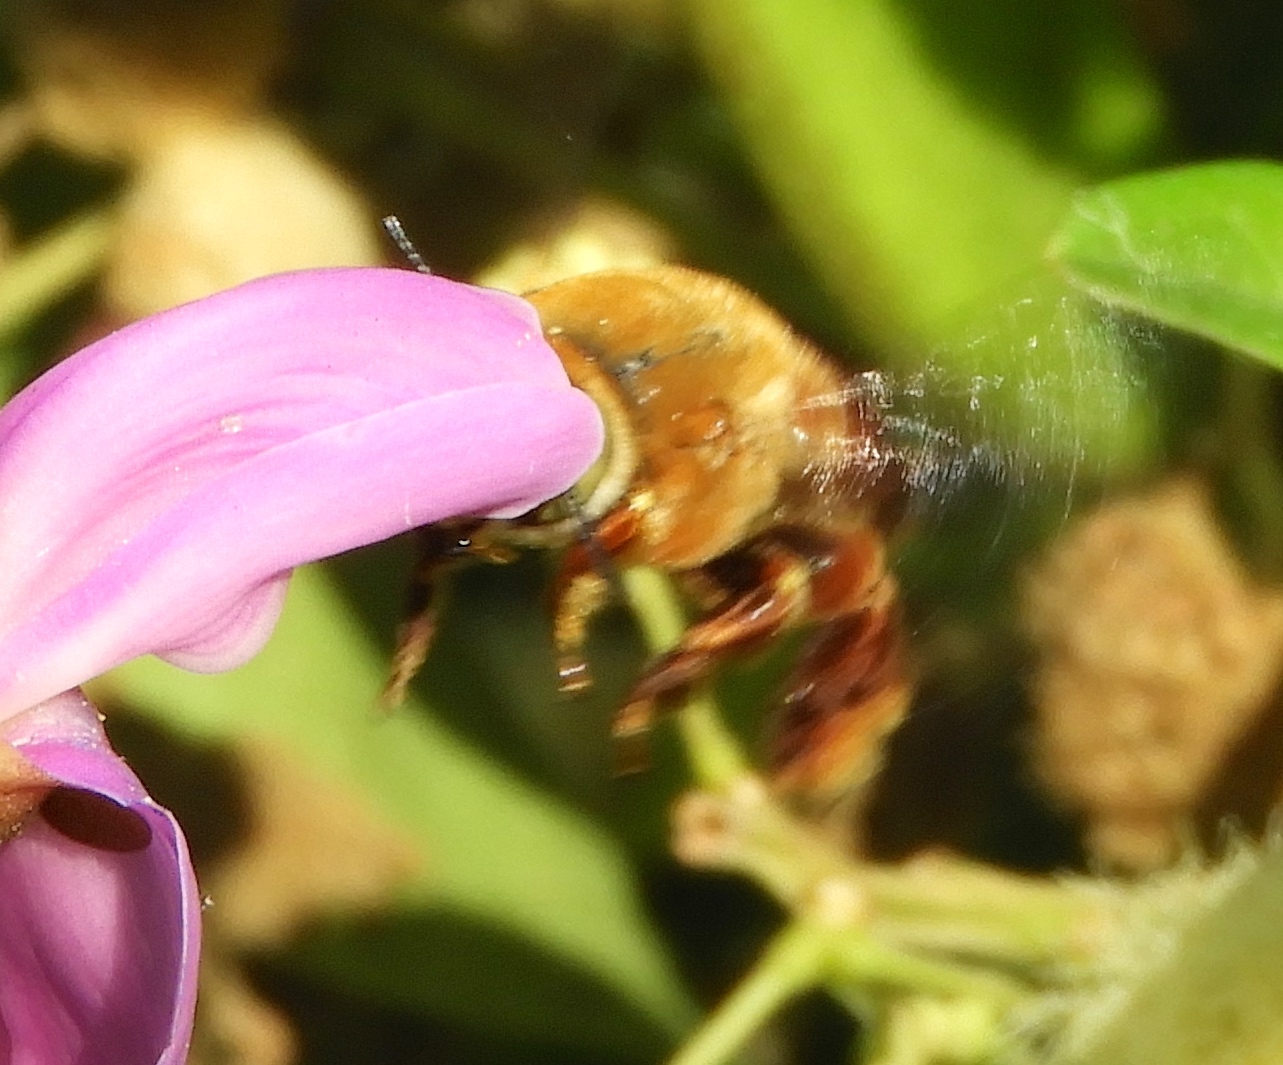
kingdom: Animalia
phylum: Arthropoda
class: Insecta
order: Hymenoptera
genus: Trachina
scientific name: Trachina
